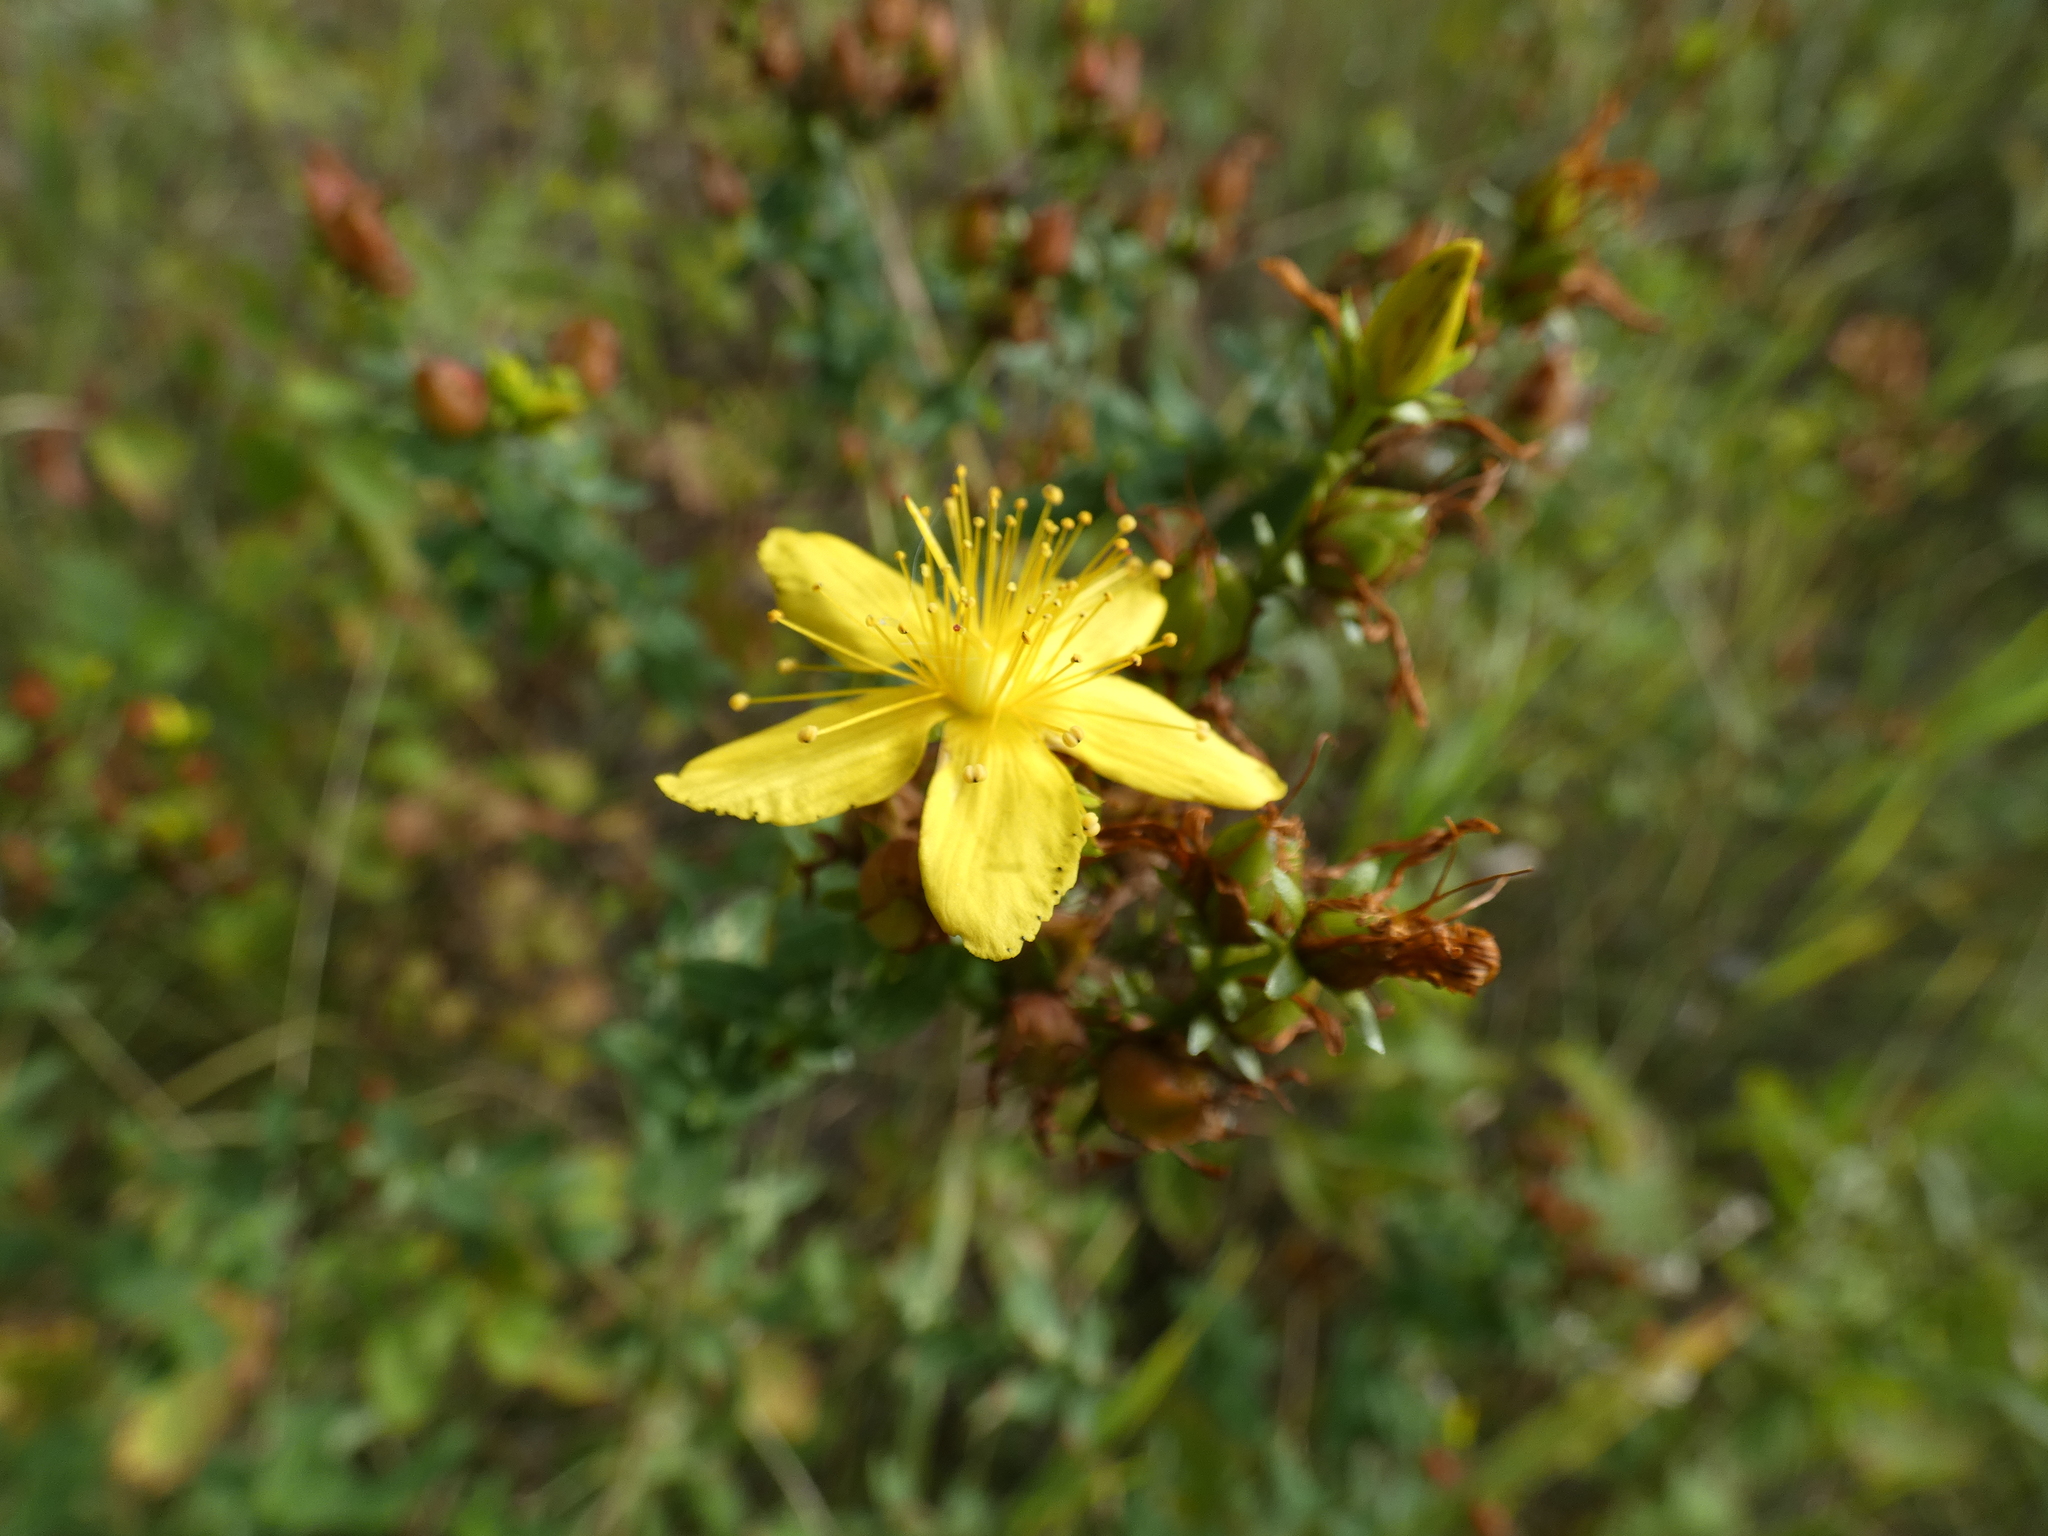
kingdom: Plantae
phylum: Tracheophyta
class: Magnoliopsida
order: Malpighiales
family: Hypericaceae
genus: Hypericum
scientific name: Hypericum perforatum
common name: Common st. johnswort
